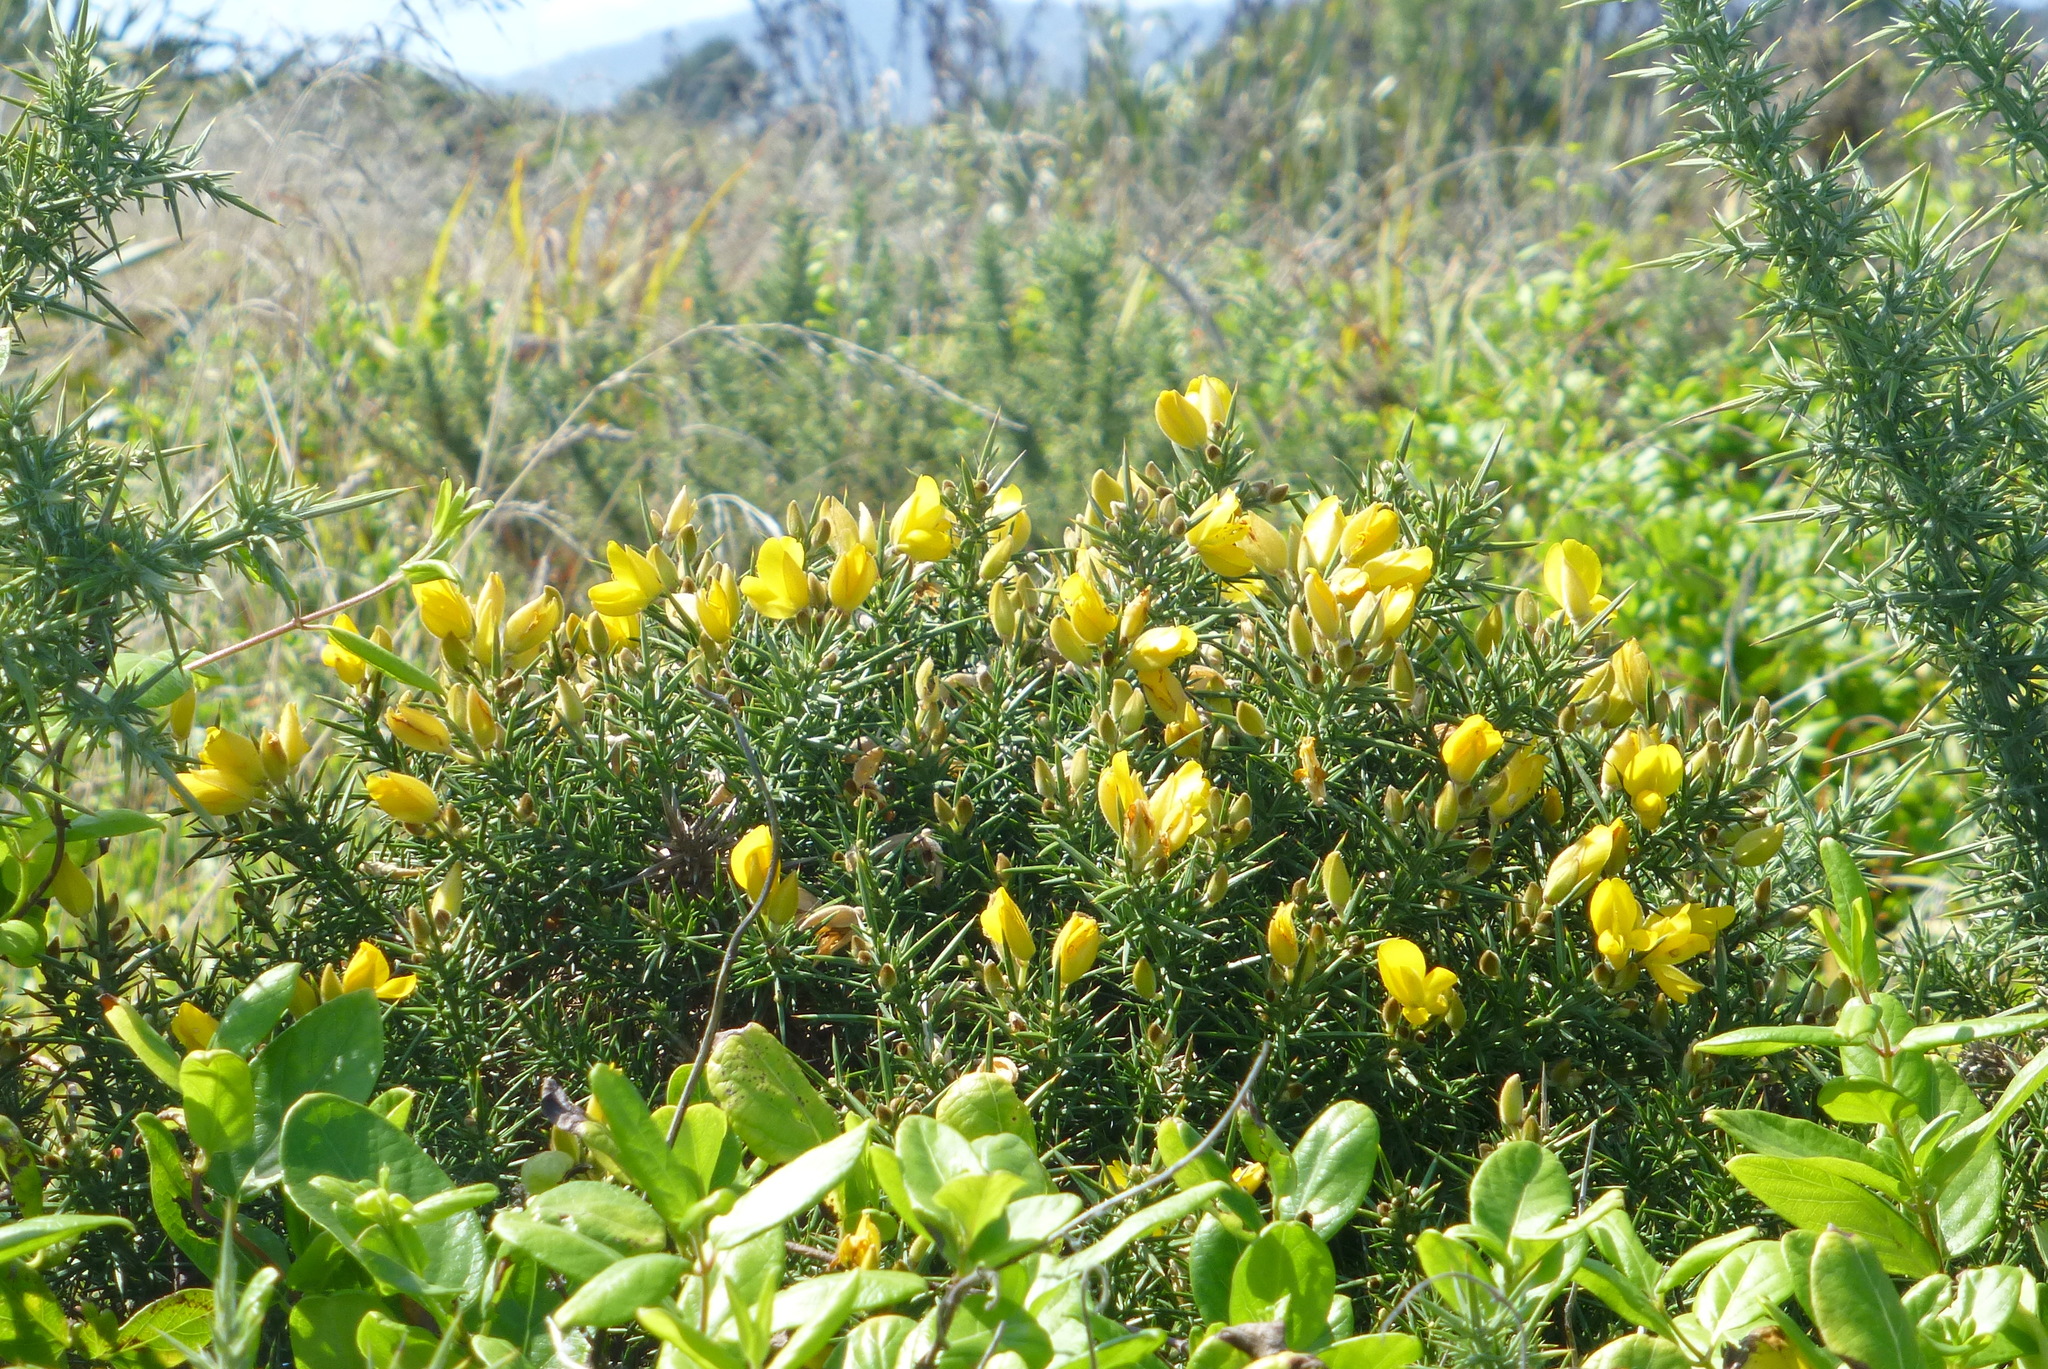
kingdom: Plantae
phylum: Tracheophyta
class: Magnoliopsida
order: Fabales
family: Fabaceae
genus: Ulex
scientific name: Ulex europaeus
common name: Common gorse
